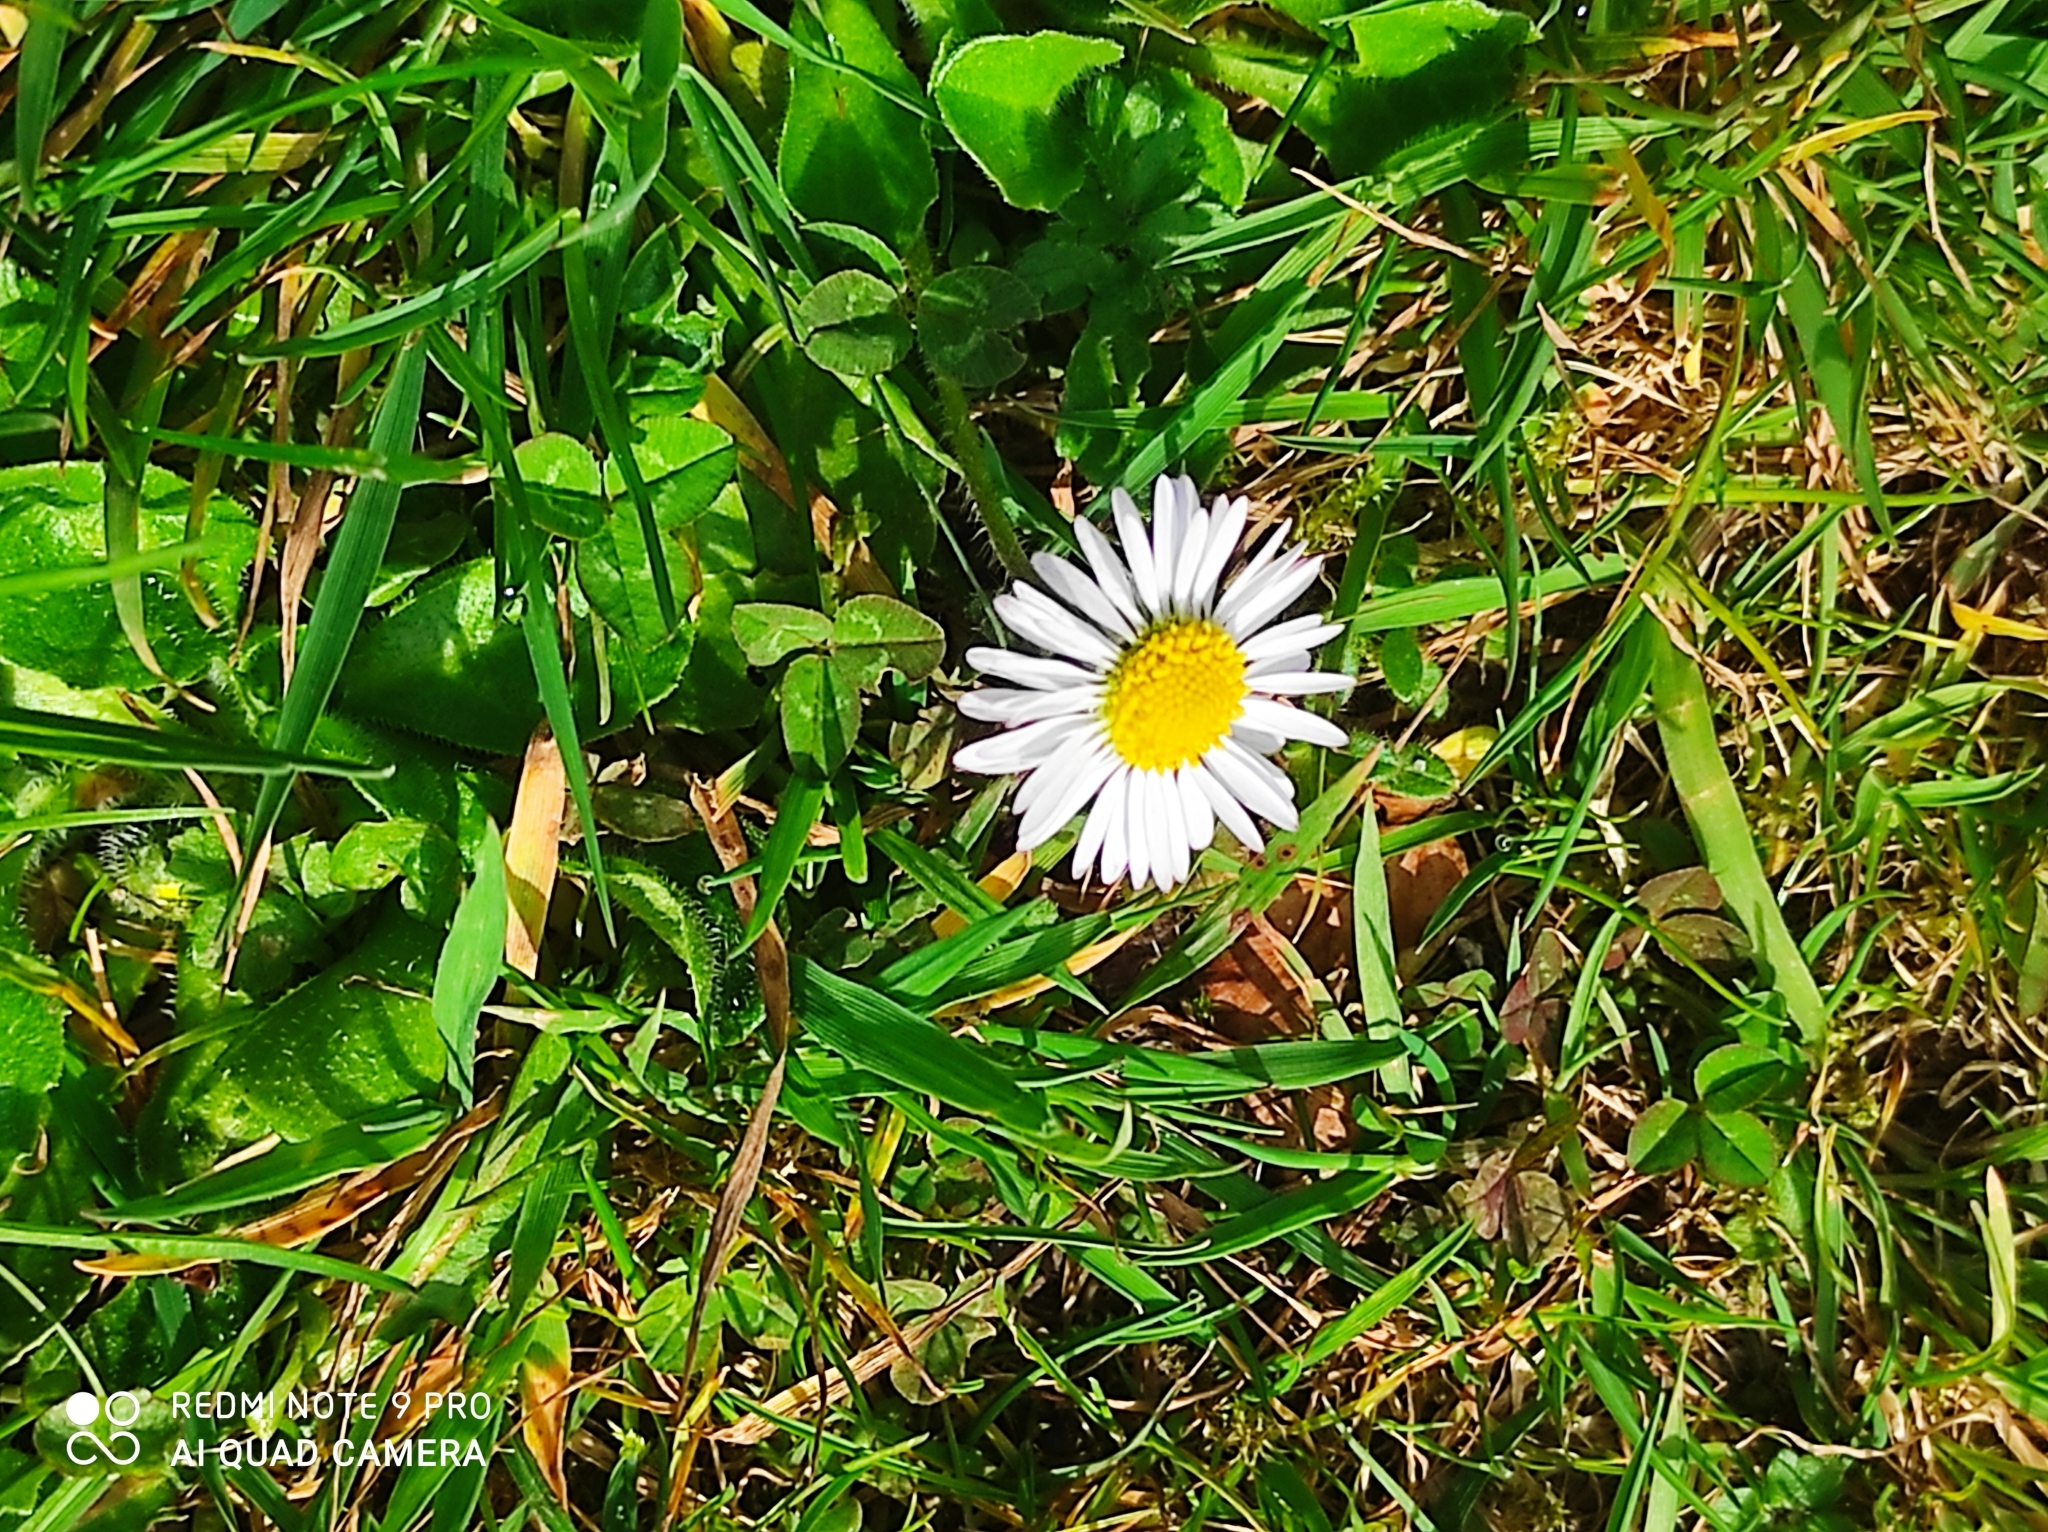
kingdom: Plantae
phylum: Tracheophyta
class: Magnoliopsida
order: Asterales
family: Asteraceae
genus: Bellis
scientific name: Bellis perennis
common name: Lawndaisy
